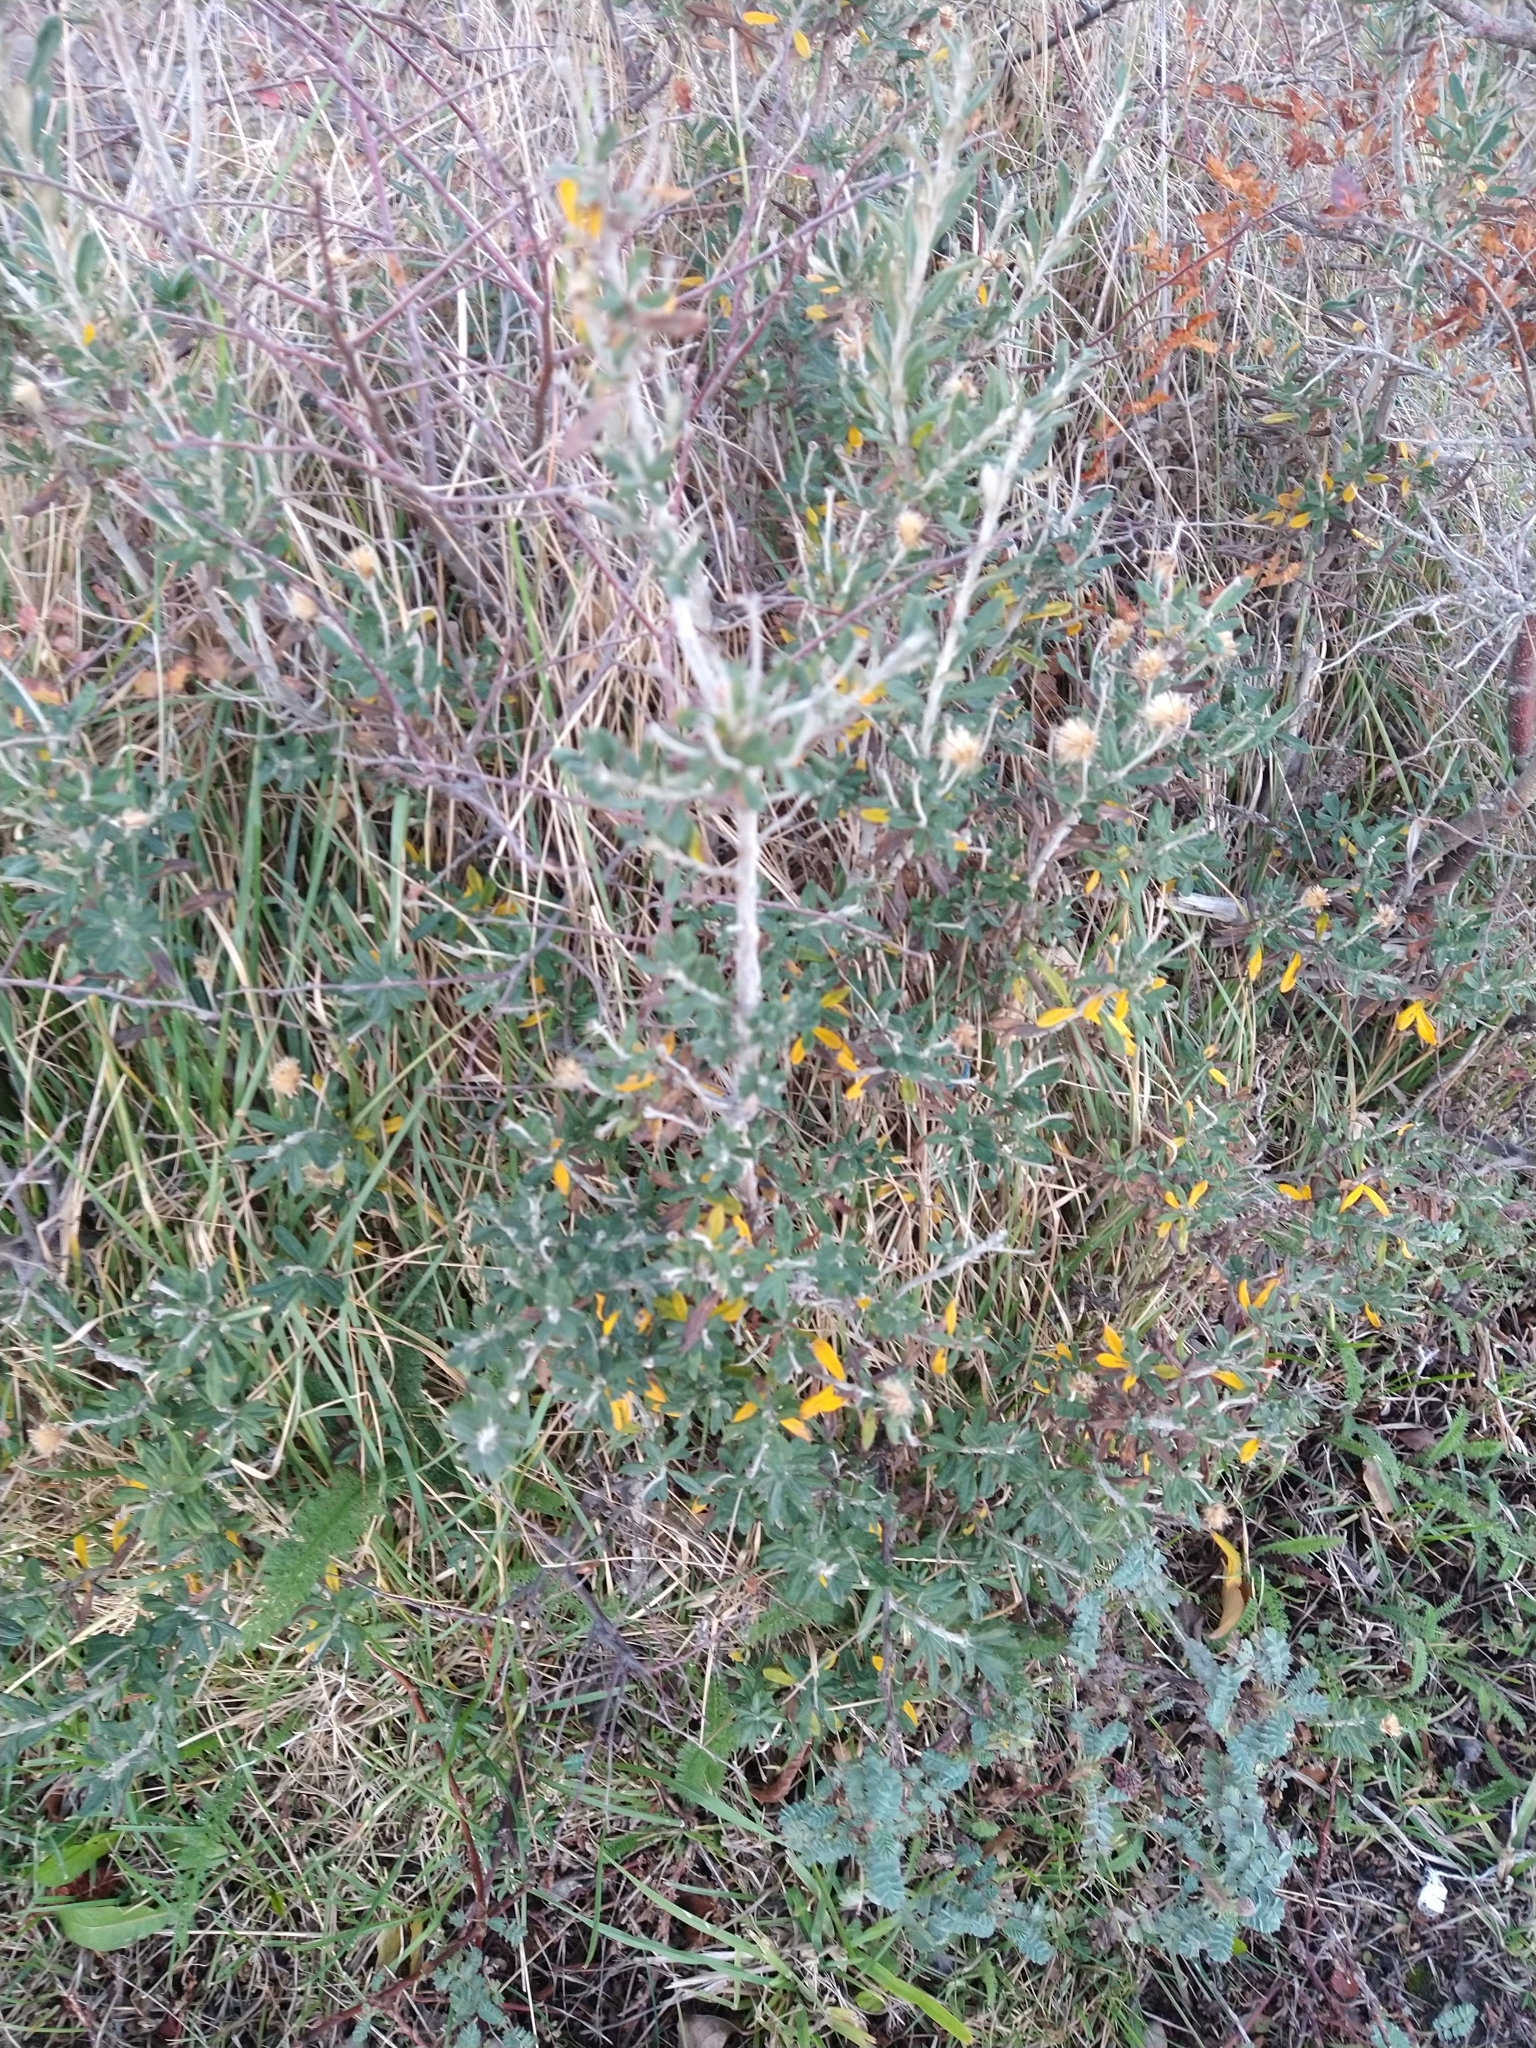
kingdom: Plantae
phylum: Tracheophyta
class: Magnoliopsida
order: Asterales
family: Asteraceae
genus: Chiliotrichum
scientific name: Chiliotrichum diffusum
